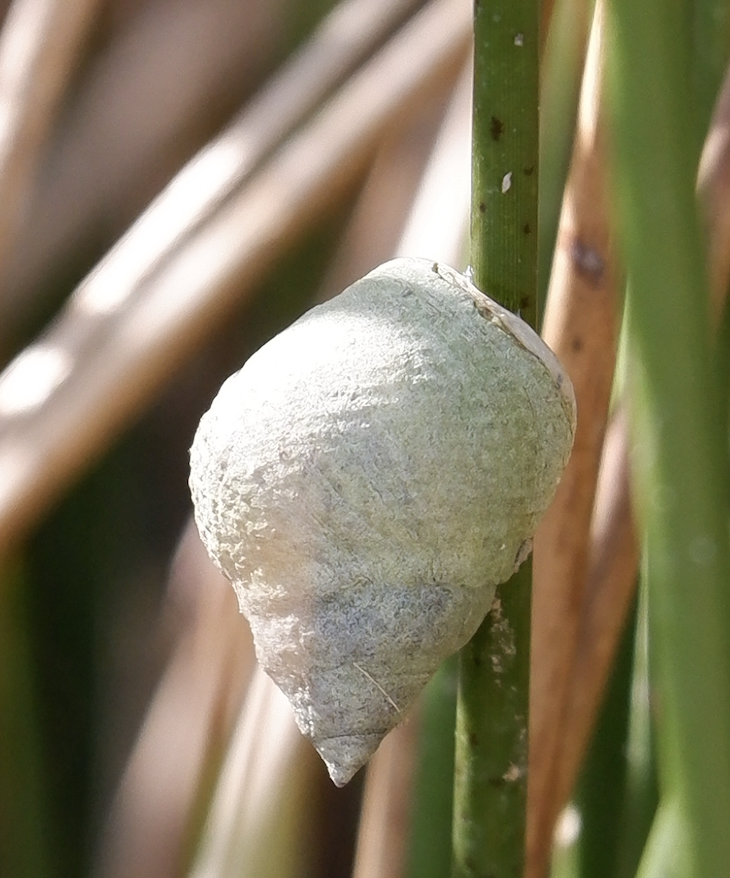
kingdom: Animalia
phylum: Mollusca
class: Gastropoda
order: Littorinimorpha
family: Littorinidae
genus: Littoraria
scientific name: Littoraria irrorata
